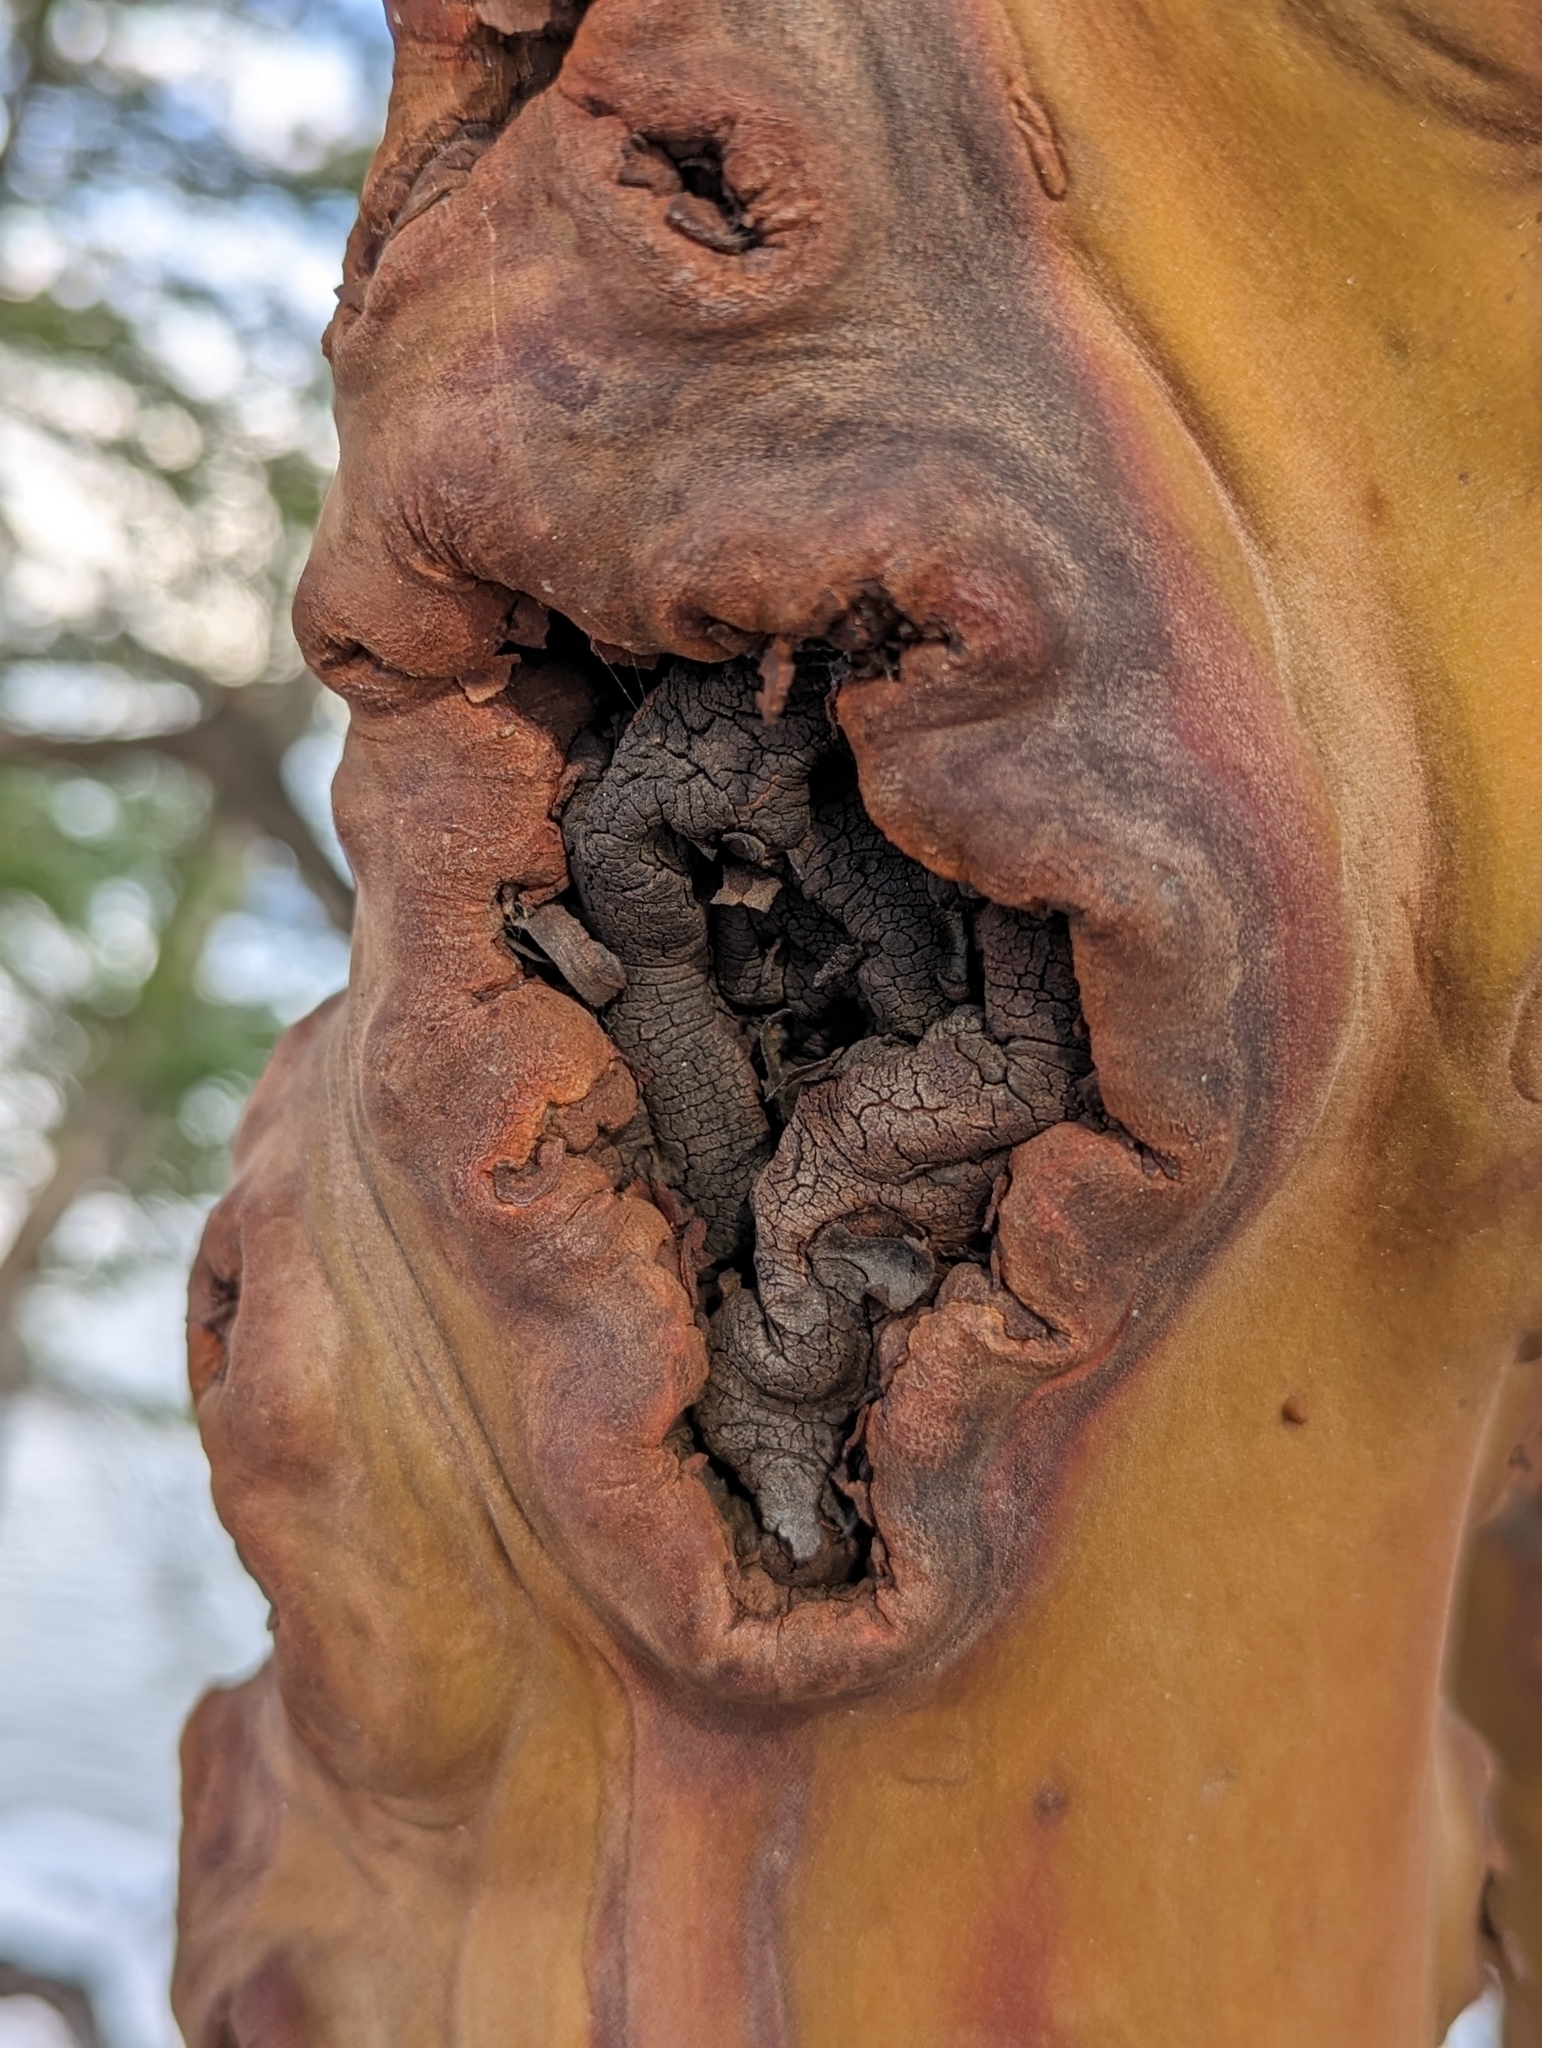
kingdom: Plantae
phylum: Tracheophyta
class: Magnoliopsida
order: Ericales
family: Ericaceae
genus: Arbutus
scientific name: Arbutus menziesii
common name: Pacific madrone
